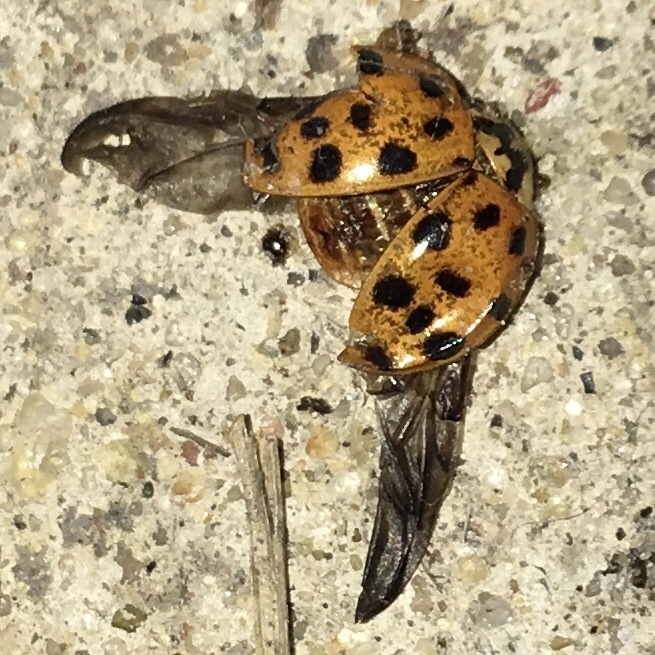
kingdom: Animalia
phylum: Arthropoda
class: Insecta
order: Coleoptera
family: Coccinellidae
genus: Harmonia
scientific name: Harmonia axyridis
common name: Harlequin ladybird
